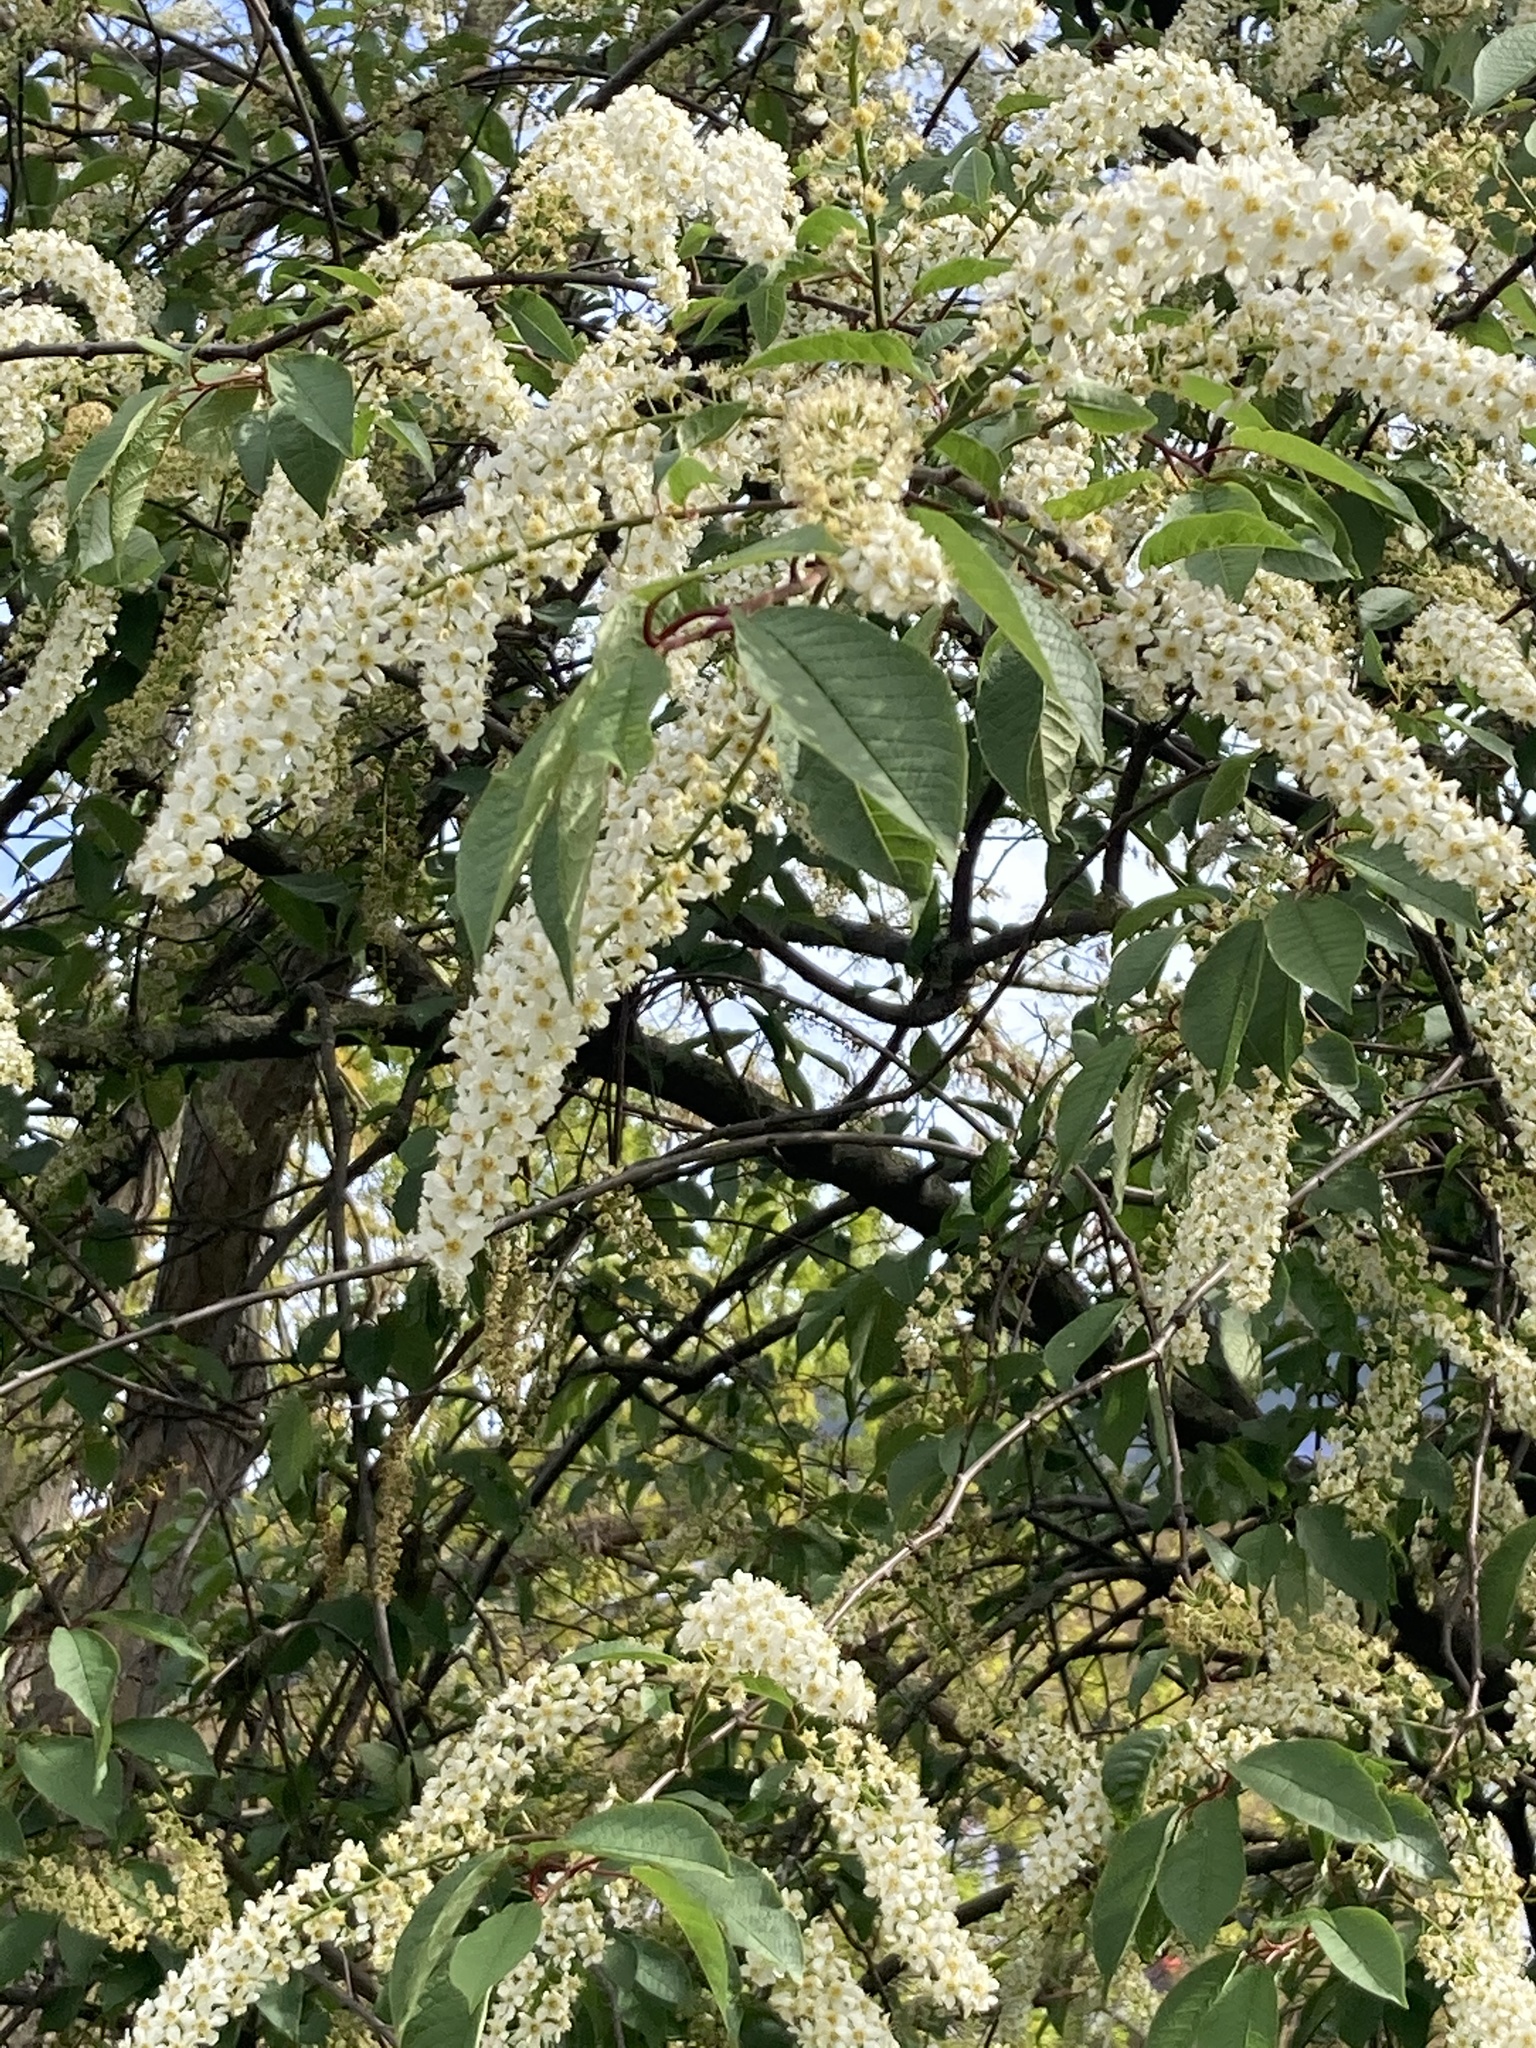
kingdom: Plantae
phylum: Tracheophyta
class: Magnoliopsida
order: Rosales
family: Rosaceae
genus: Prunus
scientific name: Prunus padus
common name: Bird cherry
